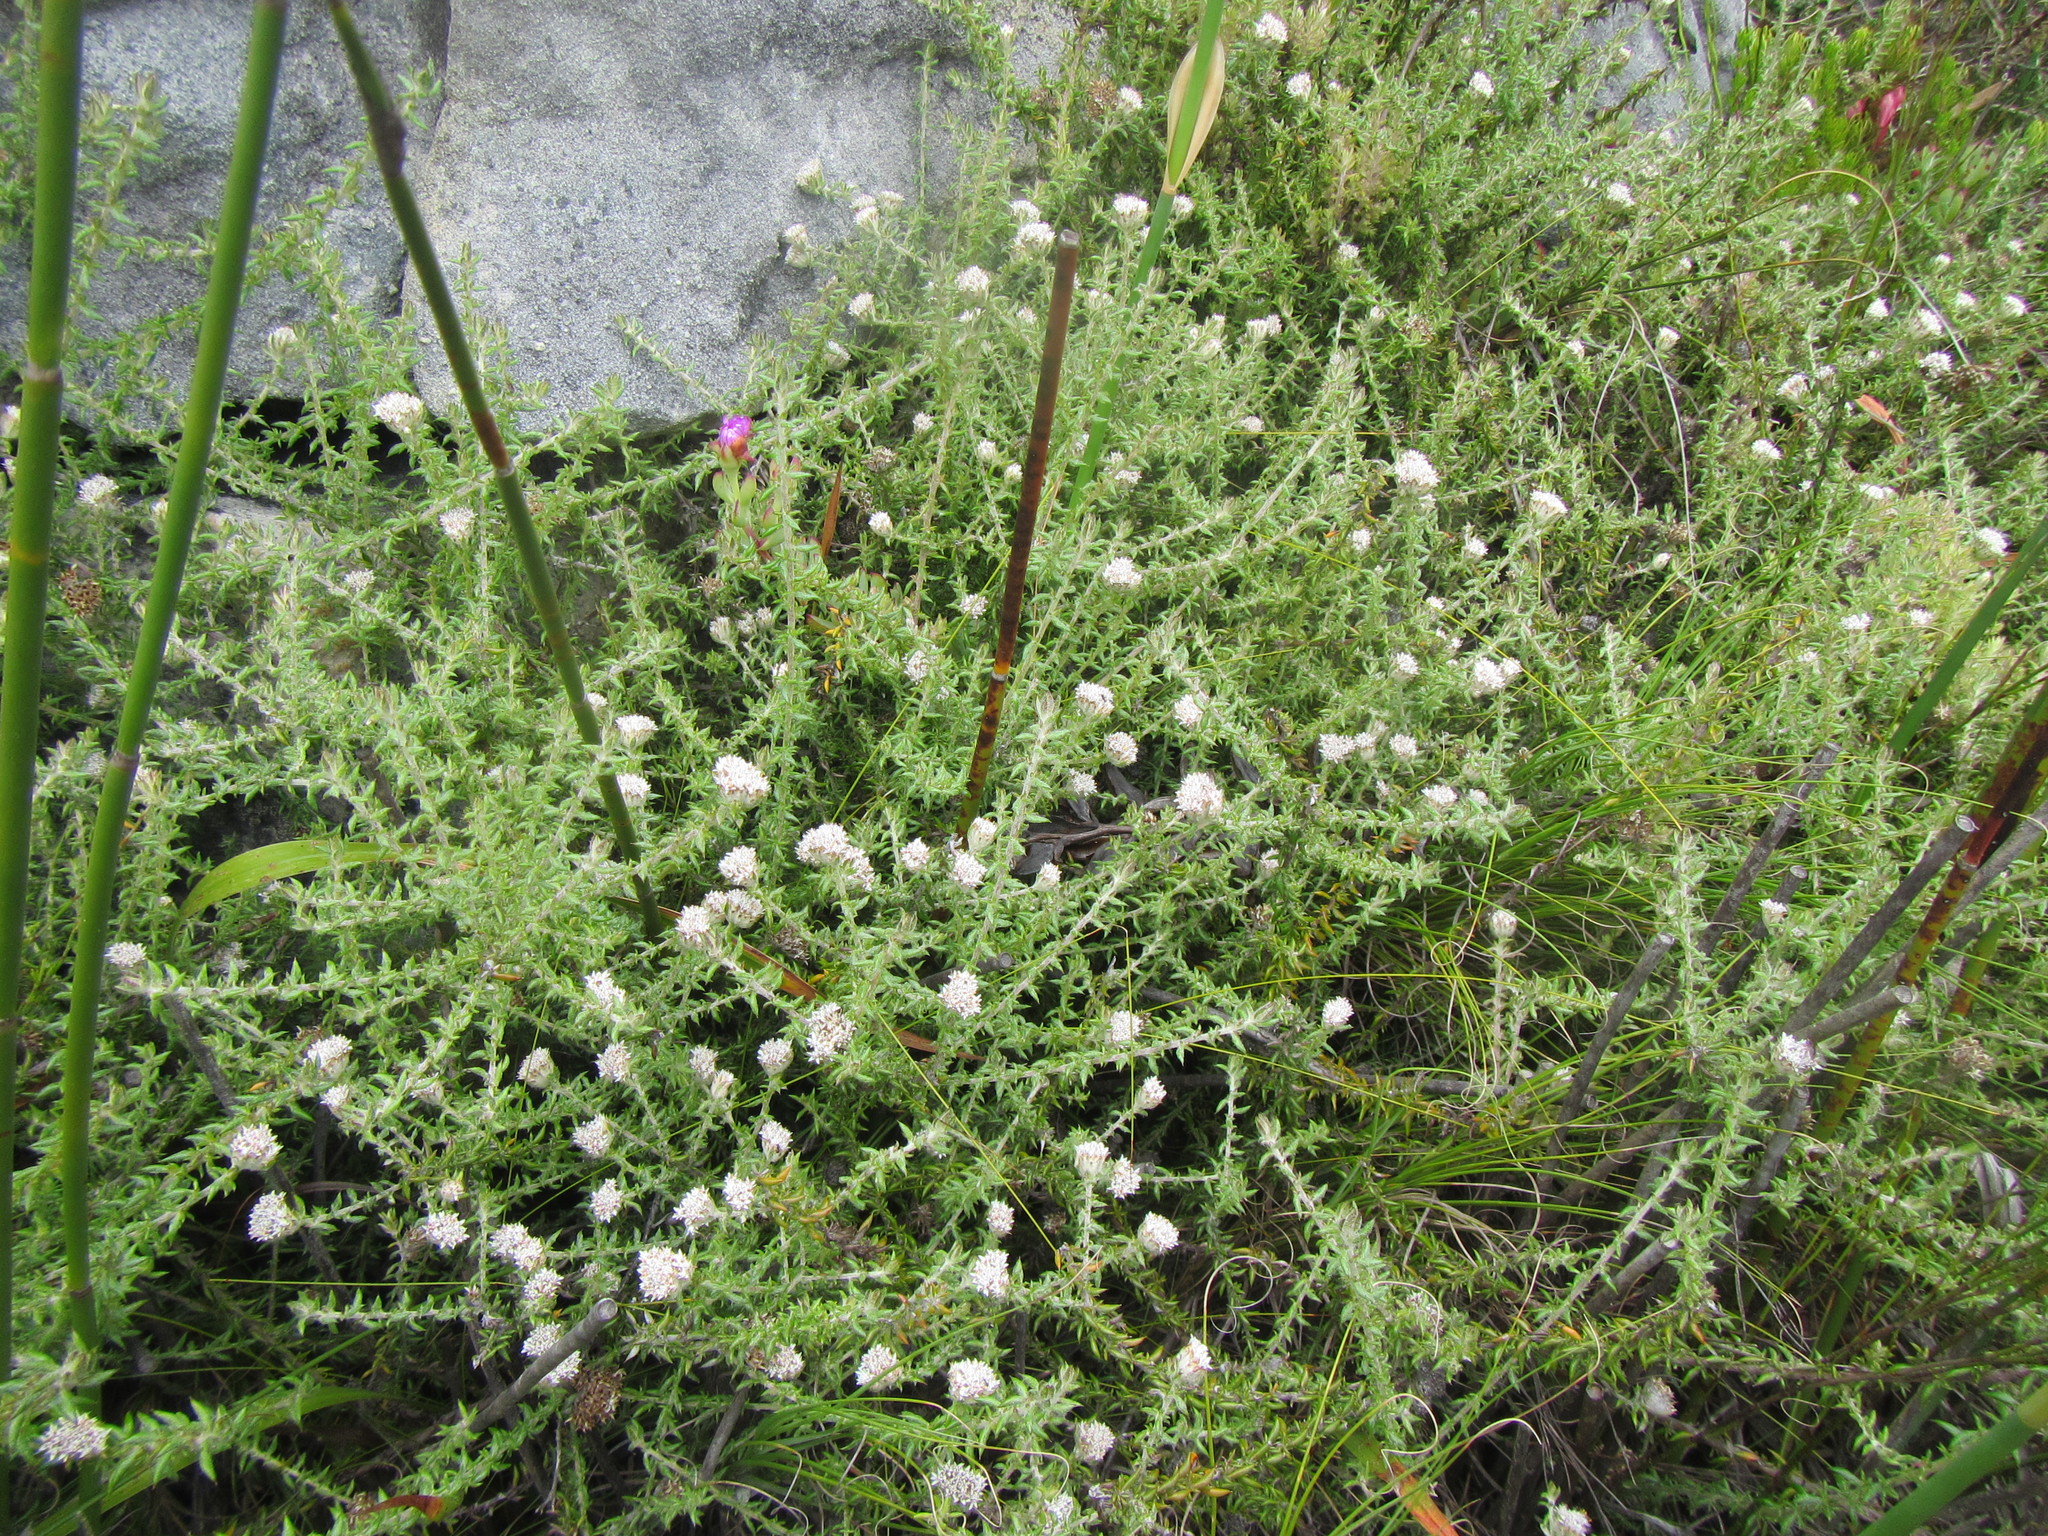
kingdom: Plantae
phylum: Tracheophyta
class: Magnoliopsida
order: Asterales
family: Asteraceae
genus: Metalasia
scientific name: Metalasia divergens
